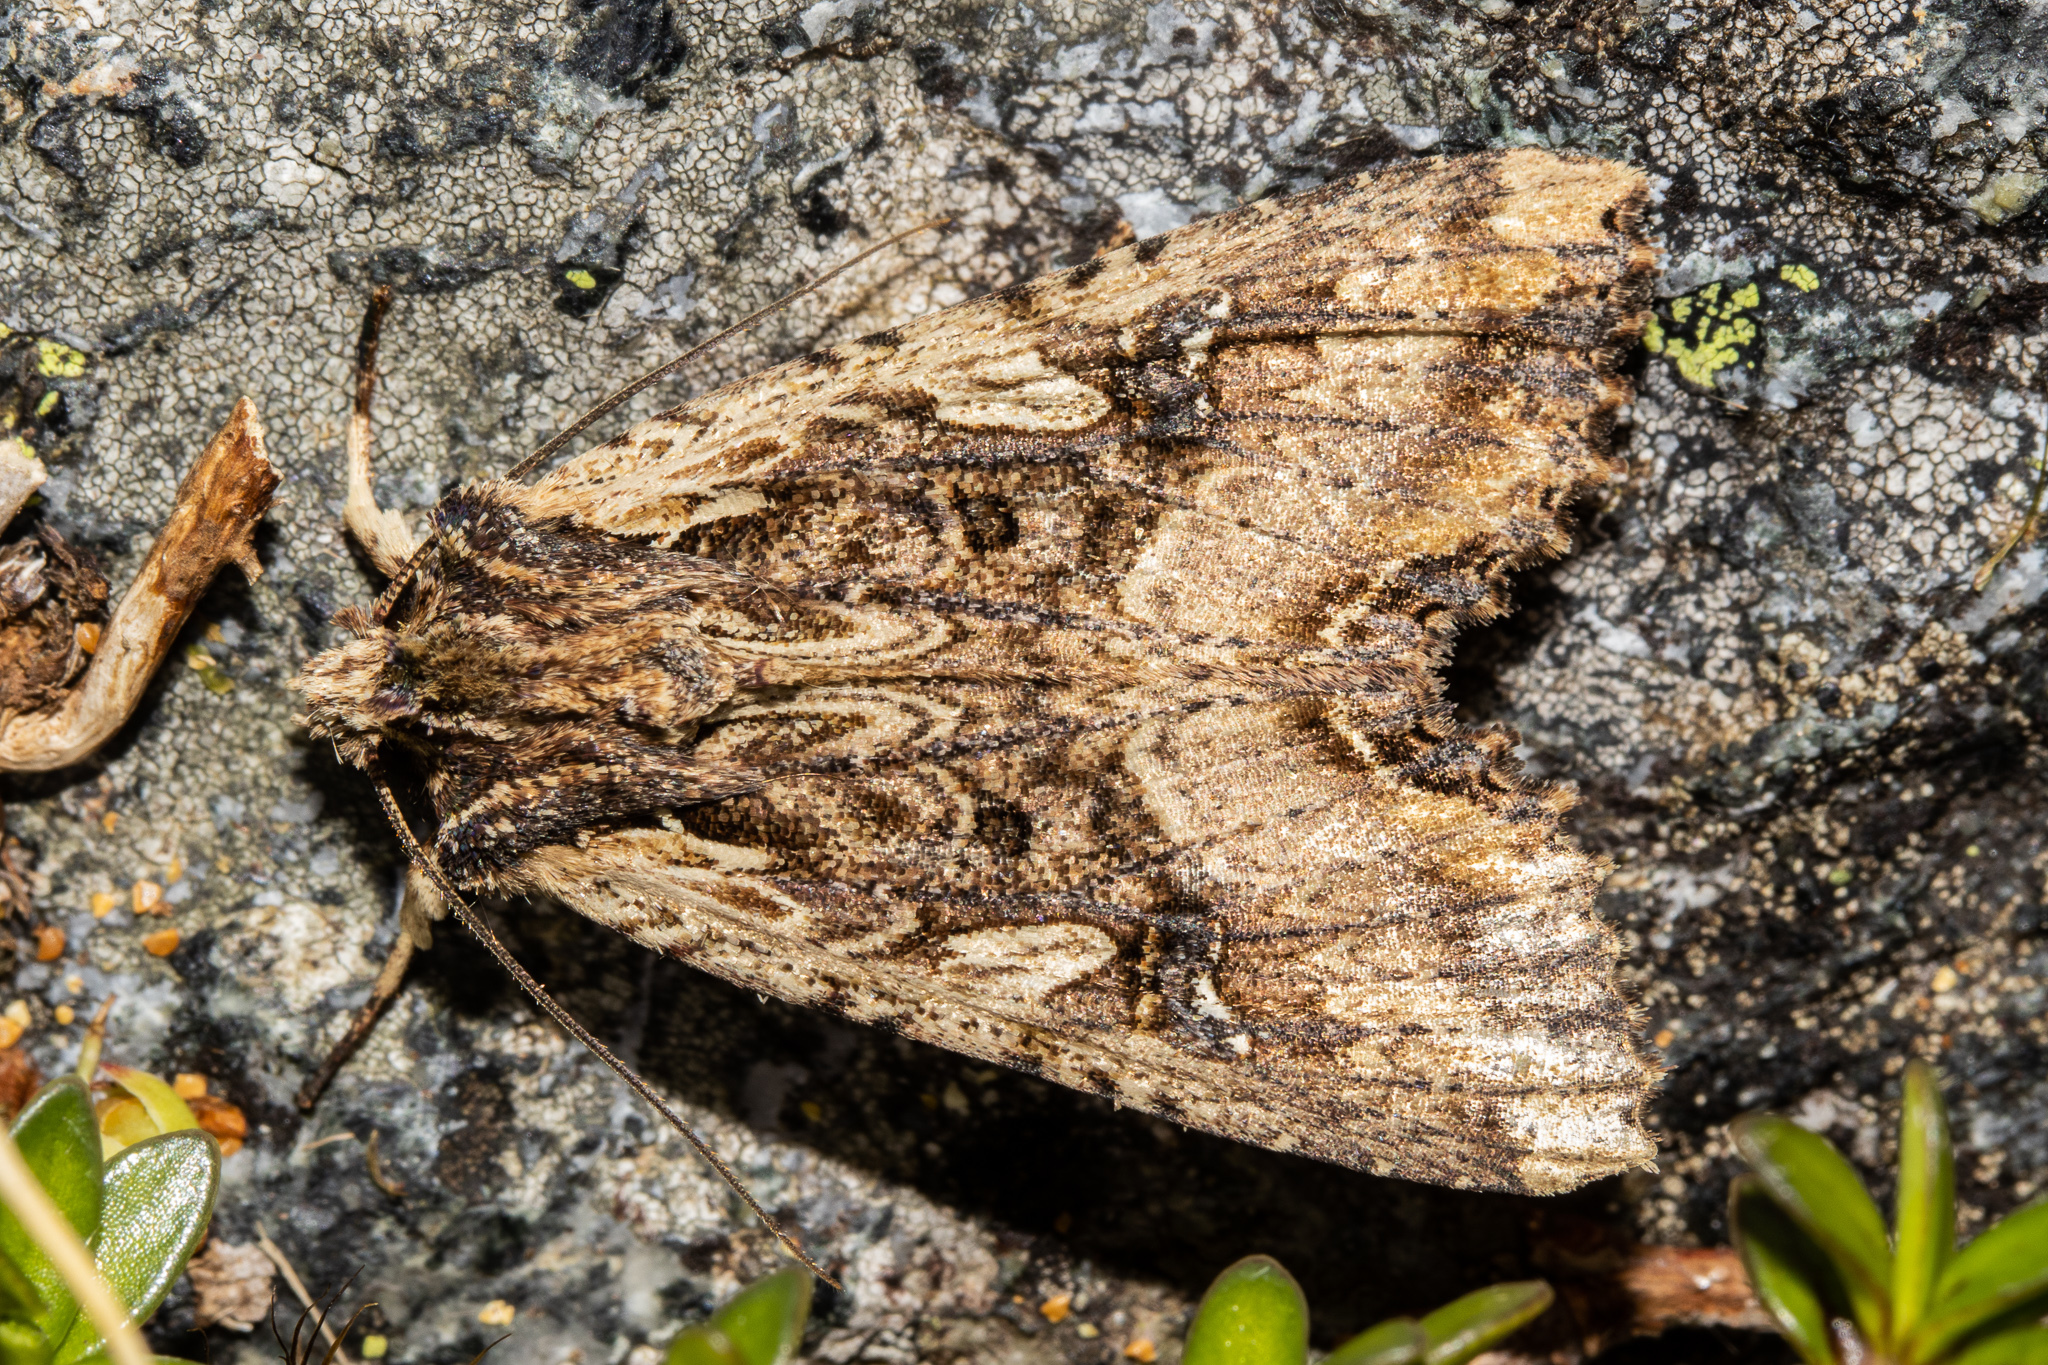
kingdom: Animalia
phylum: Arthropoda
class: Insecta
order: Lepidoptera
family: Noctuidae
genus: Meterana
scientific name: Meterana stipata
